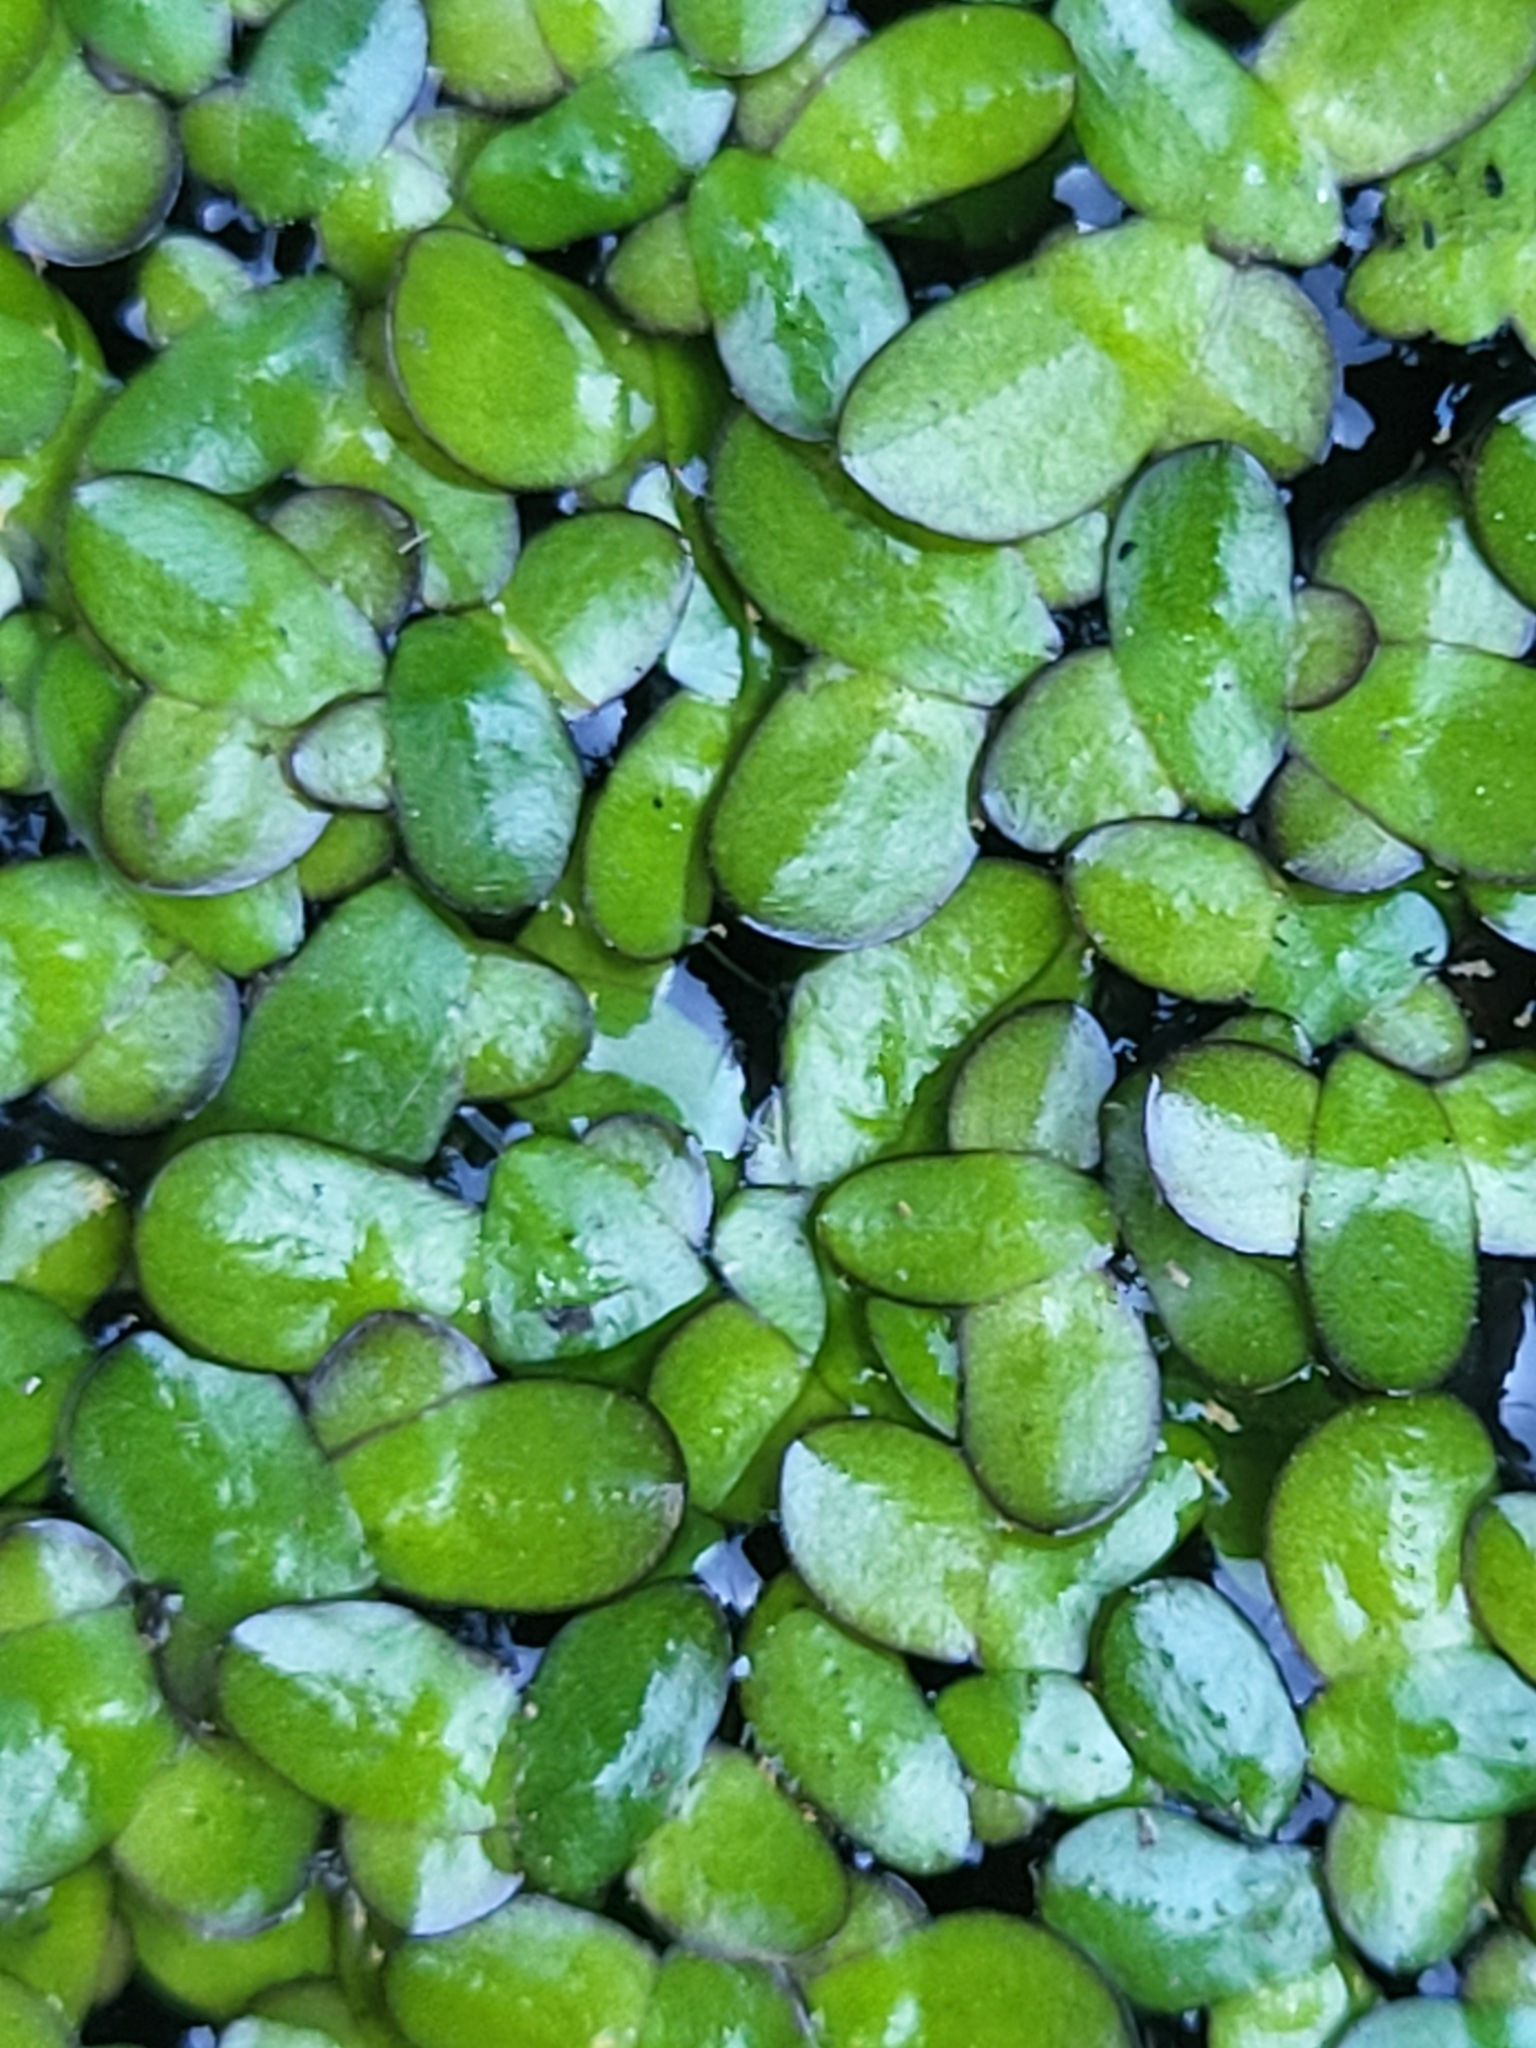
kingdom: Plantae
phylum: Tracheophyta
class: Liliopsida
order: Alismatales
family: Araceae
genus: Spirodela
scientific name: Spirodela punctata
